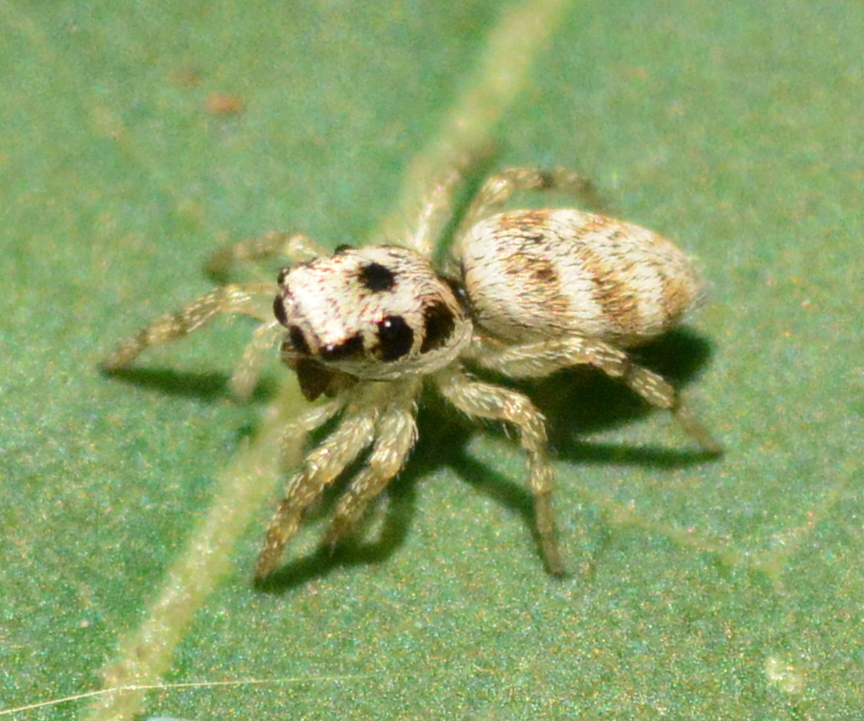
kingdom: Animalia
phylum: Arthropoda
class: Arachnida
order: Araneae
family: Salticidae
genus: Salticus
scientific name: Salticus scenicus
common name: Zebra jumper
